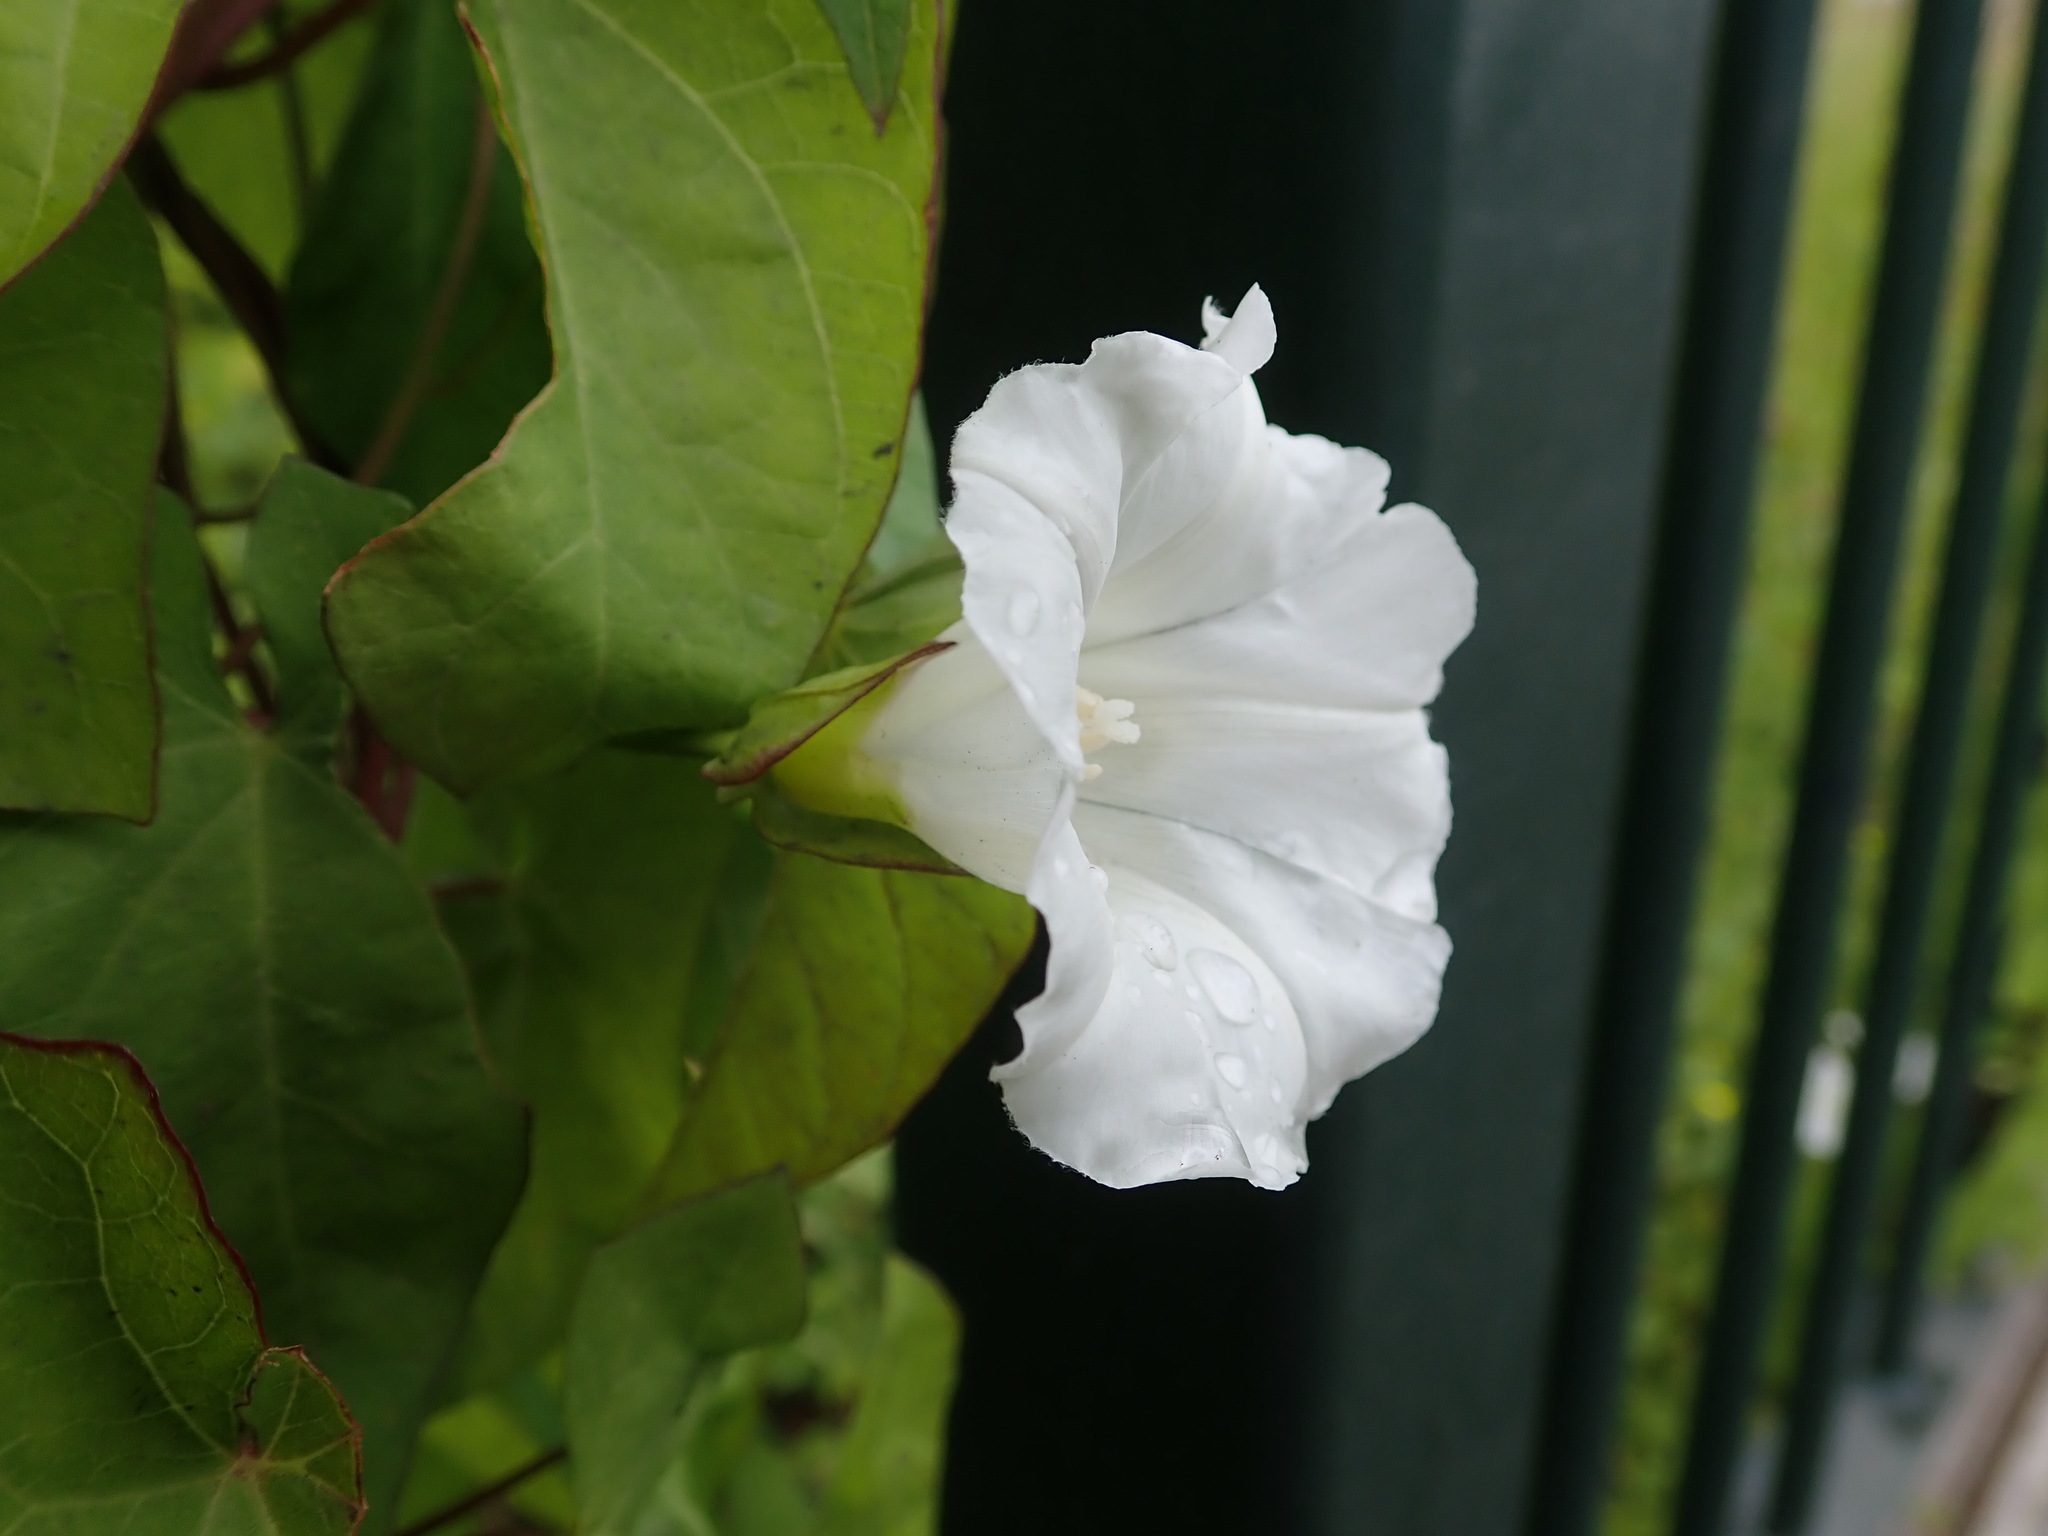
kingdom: Plantae
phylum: Tracheophyta
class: Magnoliopsida
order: Solanales
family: Convolvulaceae
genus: Calystegia
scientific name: Calystegia sepium
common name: Hedge bindweed
